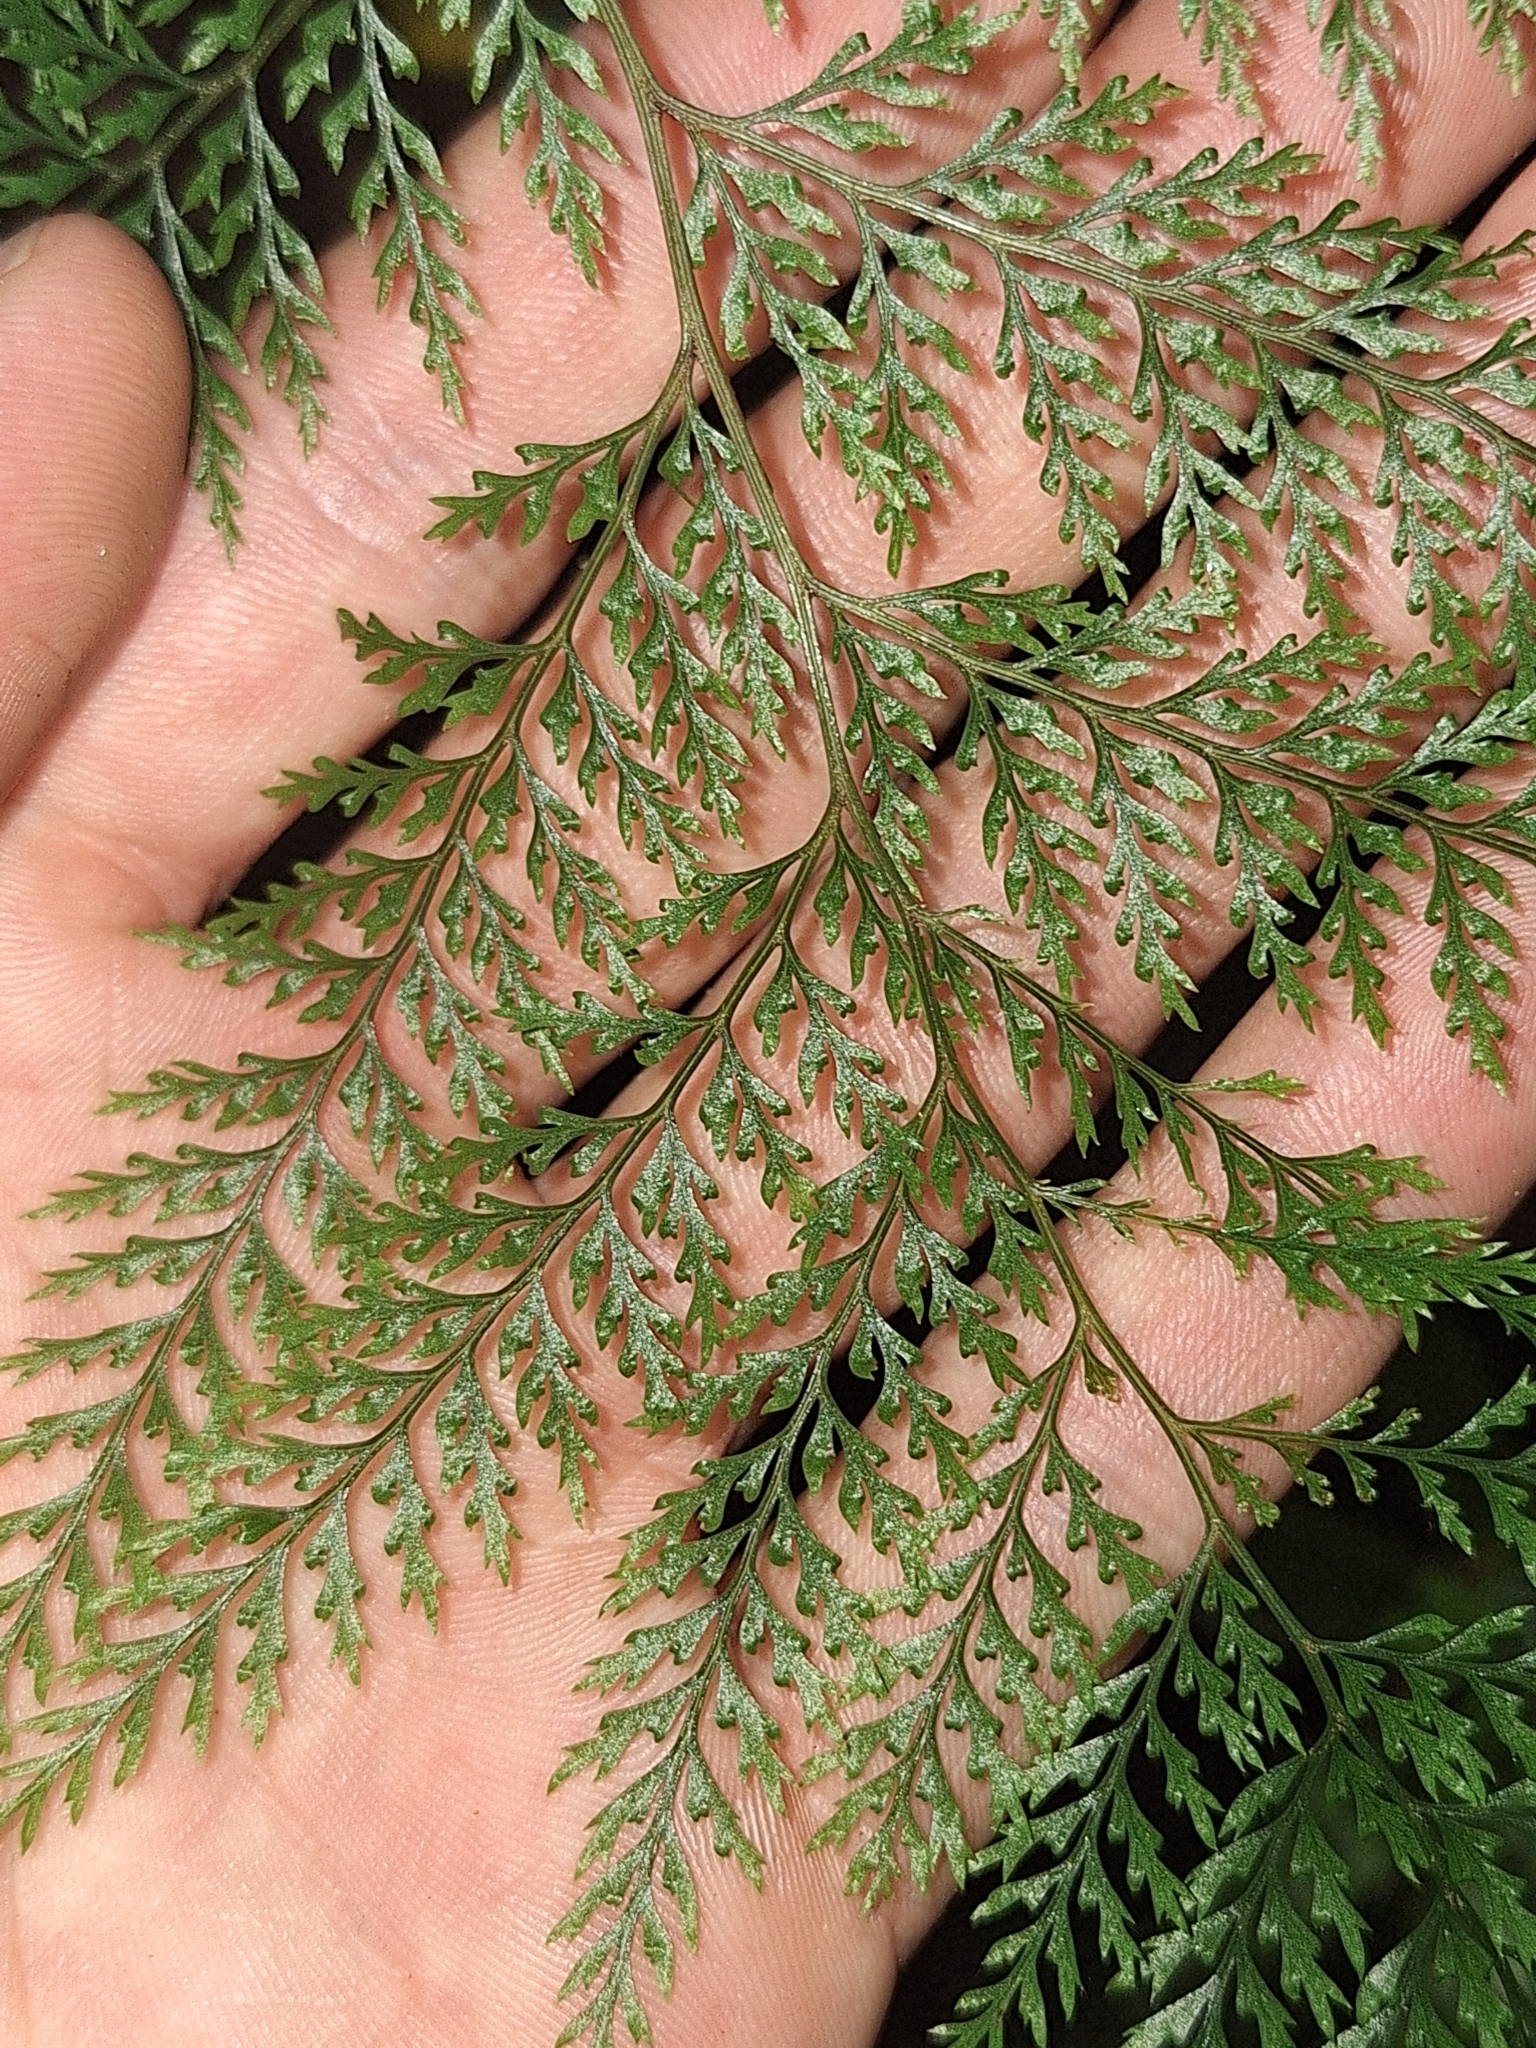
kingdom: Plantae
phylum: Tracheophyta
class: Polypodiopsida
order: Polypodiales
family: Dennstaedtiaceae
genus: Dennstaedtia
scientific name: Dennstaedtia novae-zelandiae
